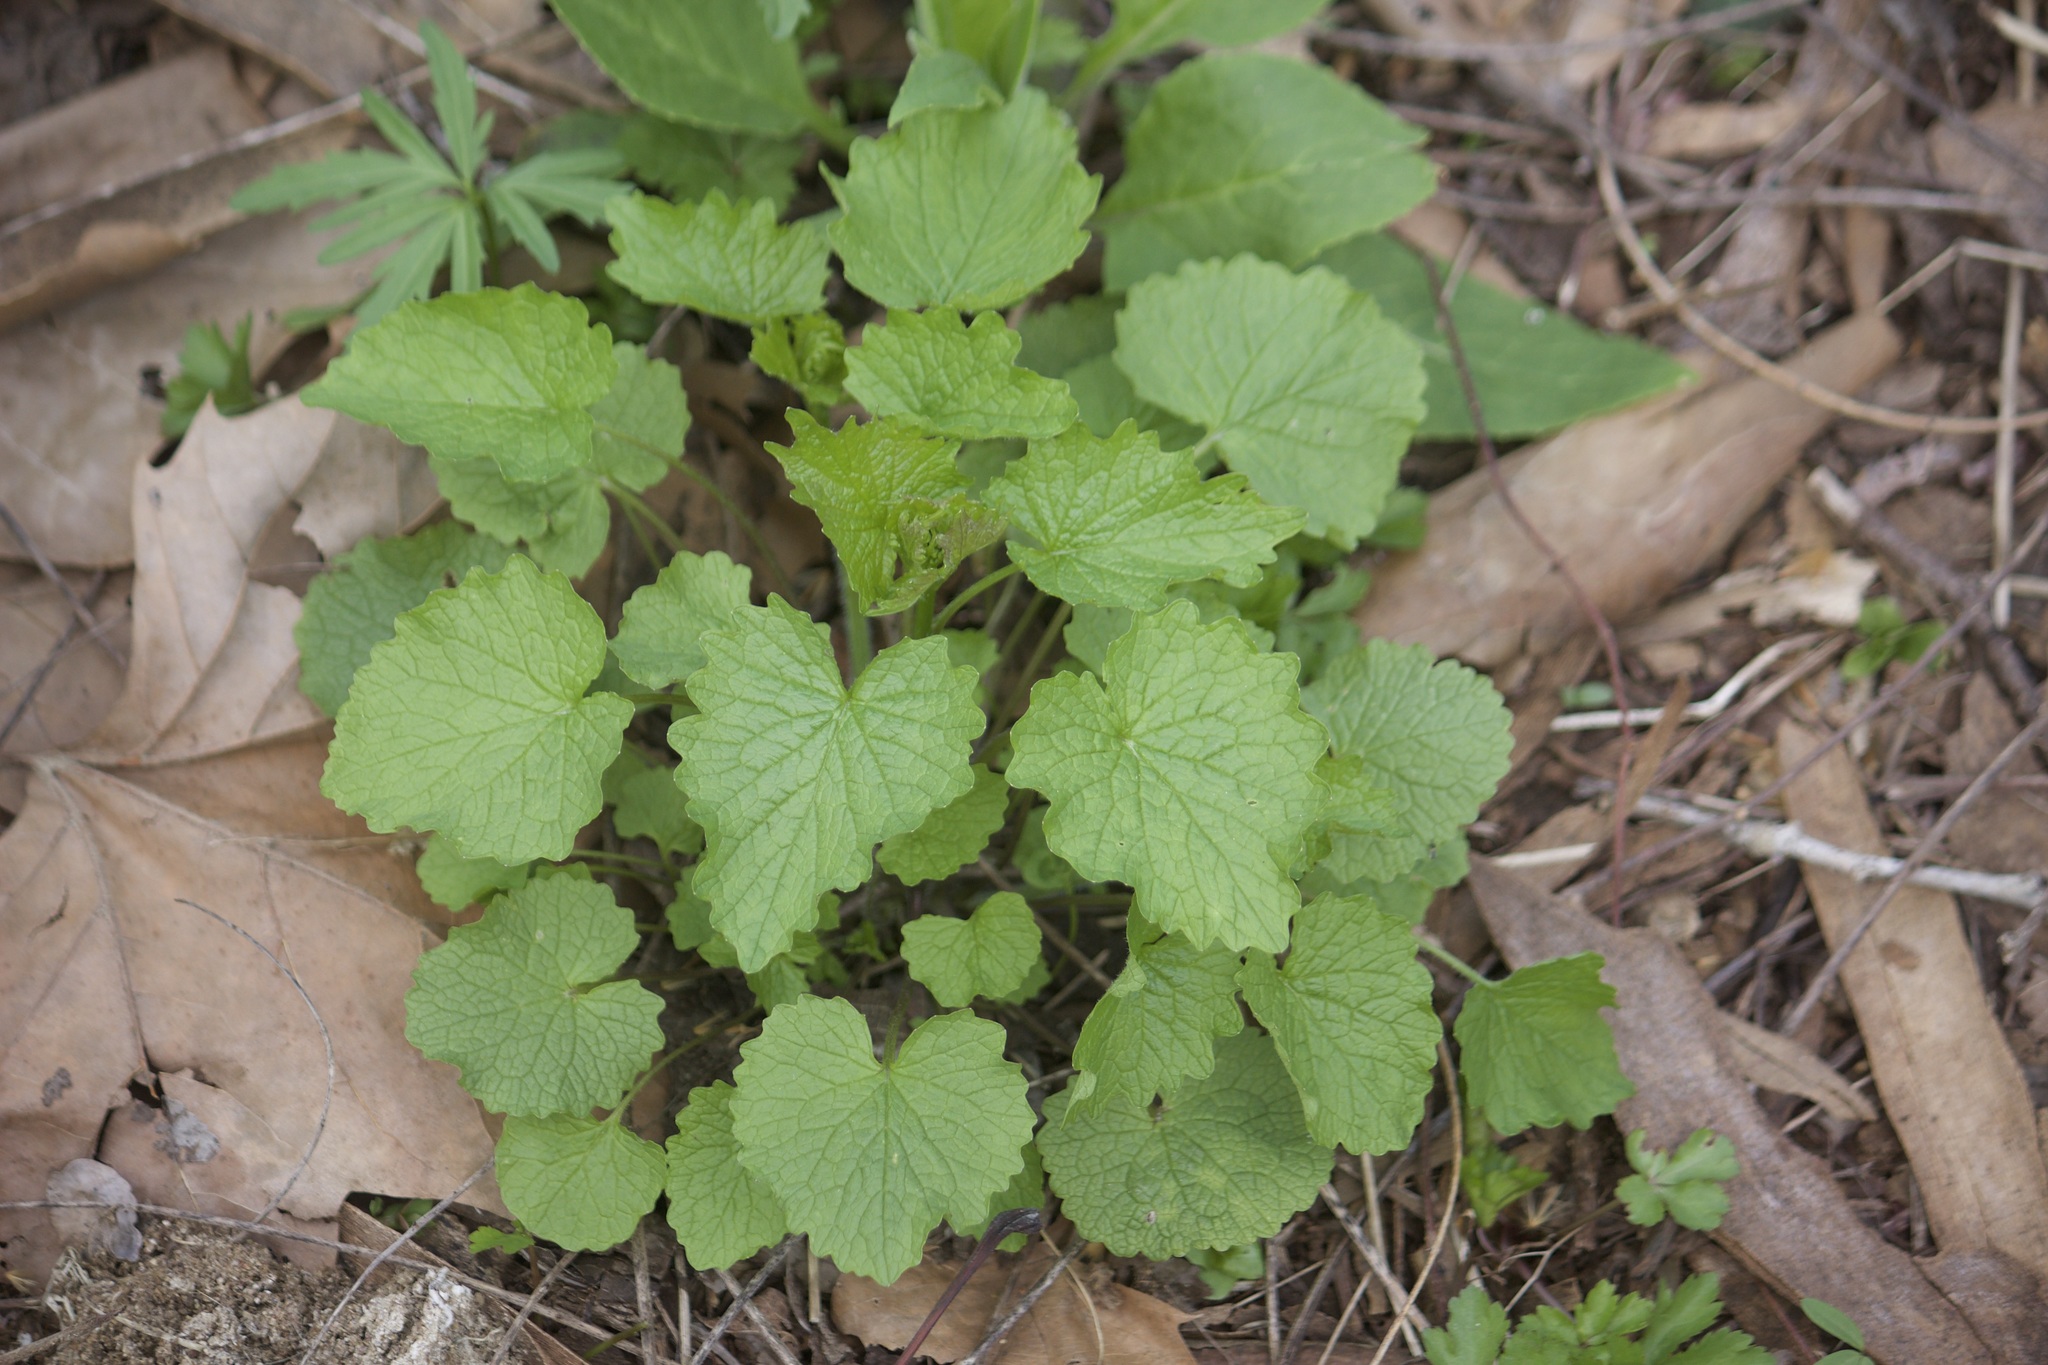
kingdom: Plantae
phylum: Tracheophyta
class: Magnoliopsida
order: Brassicales
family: Brassicaceae
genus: Alliaria
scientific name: Alliaria petiolata
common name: Garlic mustard
